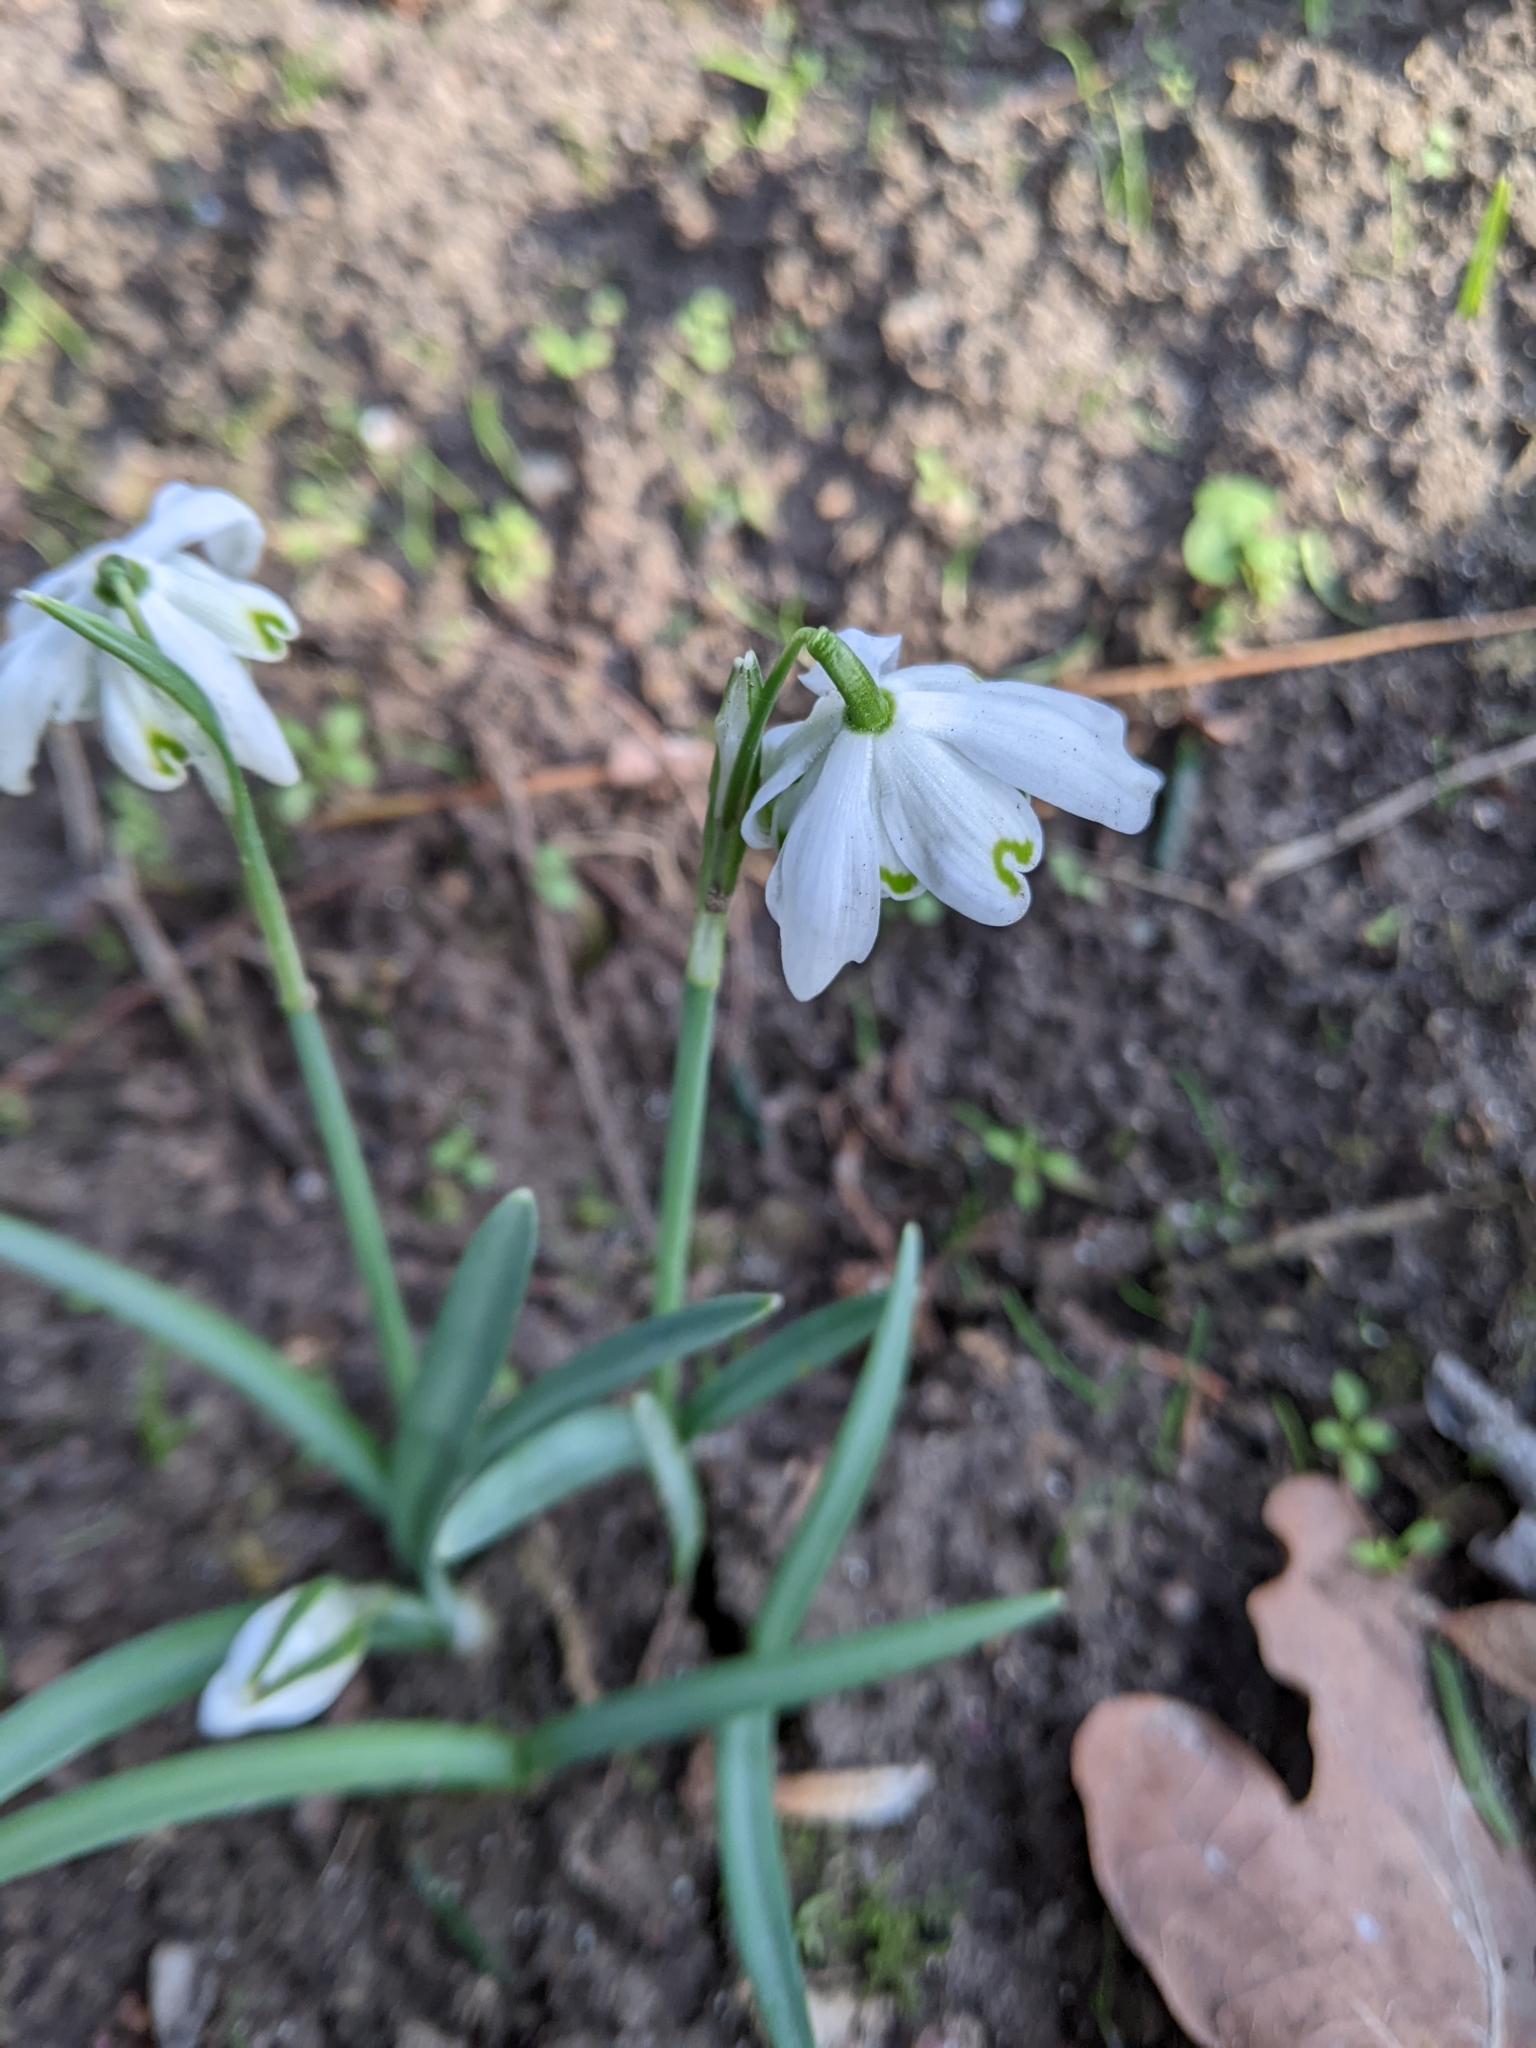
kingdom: Plantae
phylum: Tracheophyta
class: Liliopsida
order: Asparagales
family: Amaryllidaceae
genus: Galanthus
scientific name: Galanthus nivalis
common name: Snowdrop
